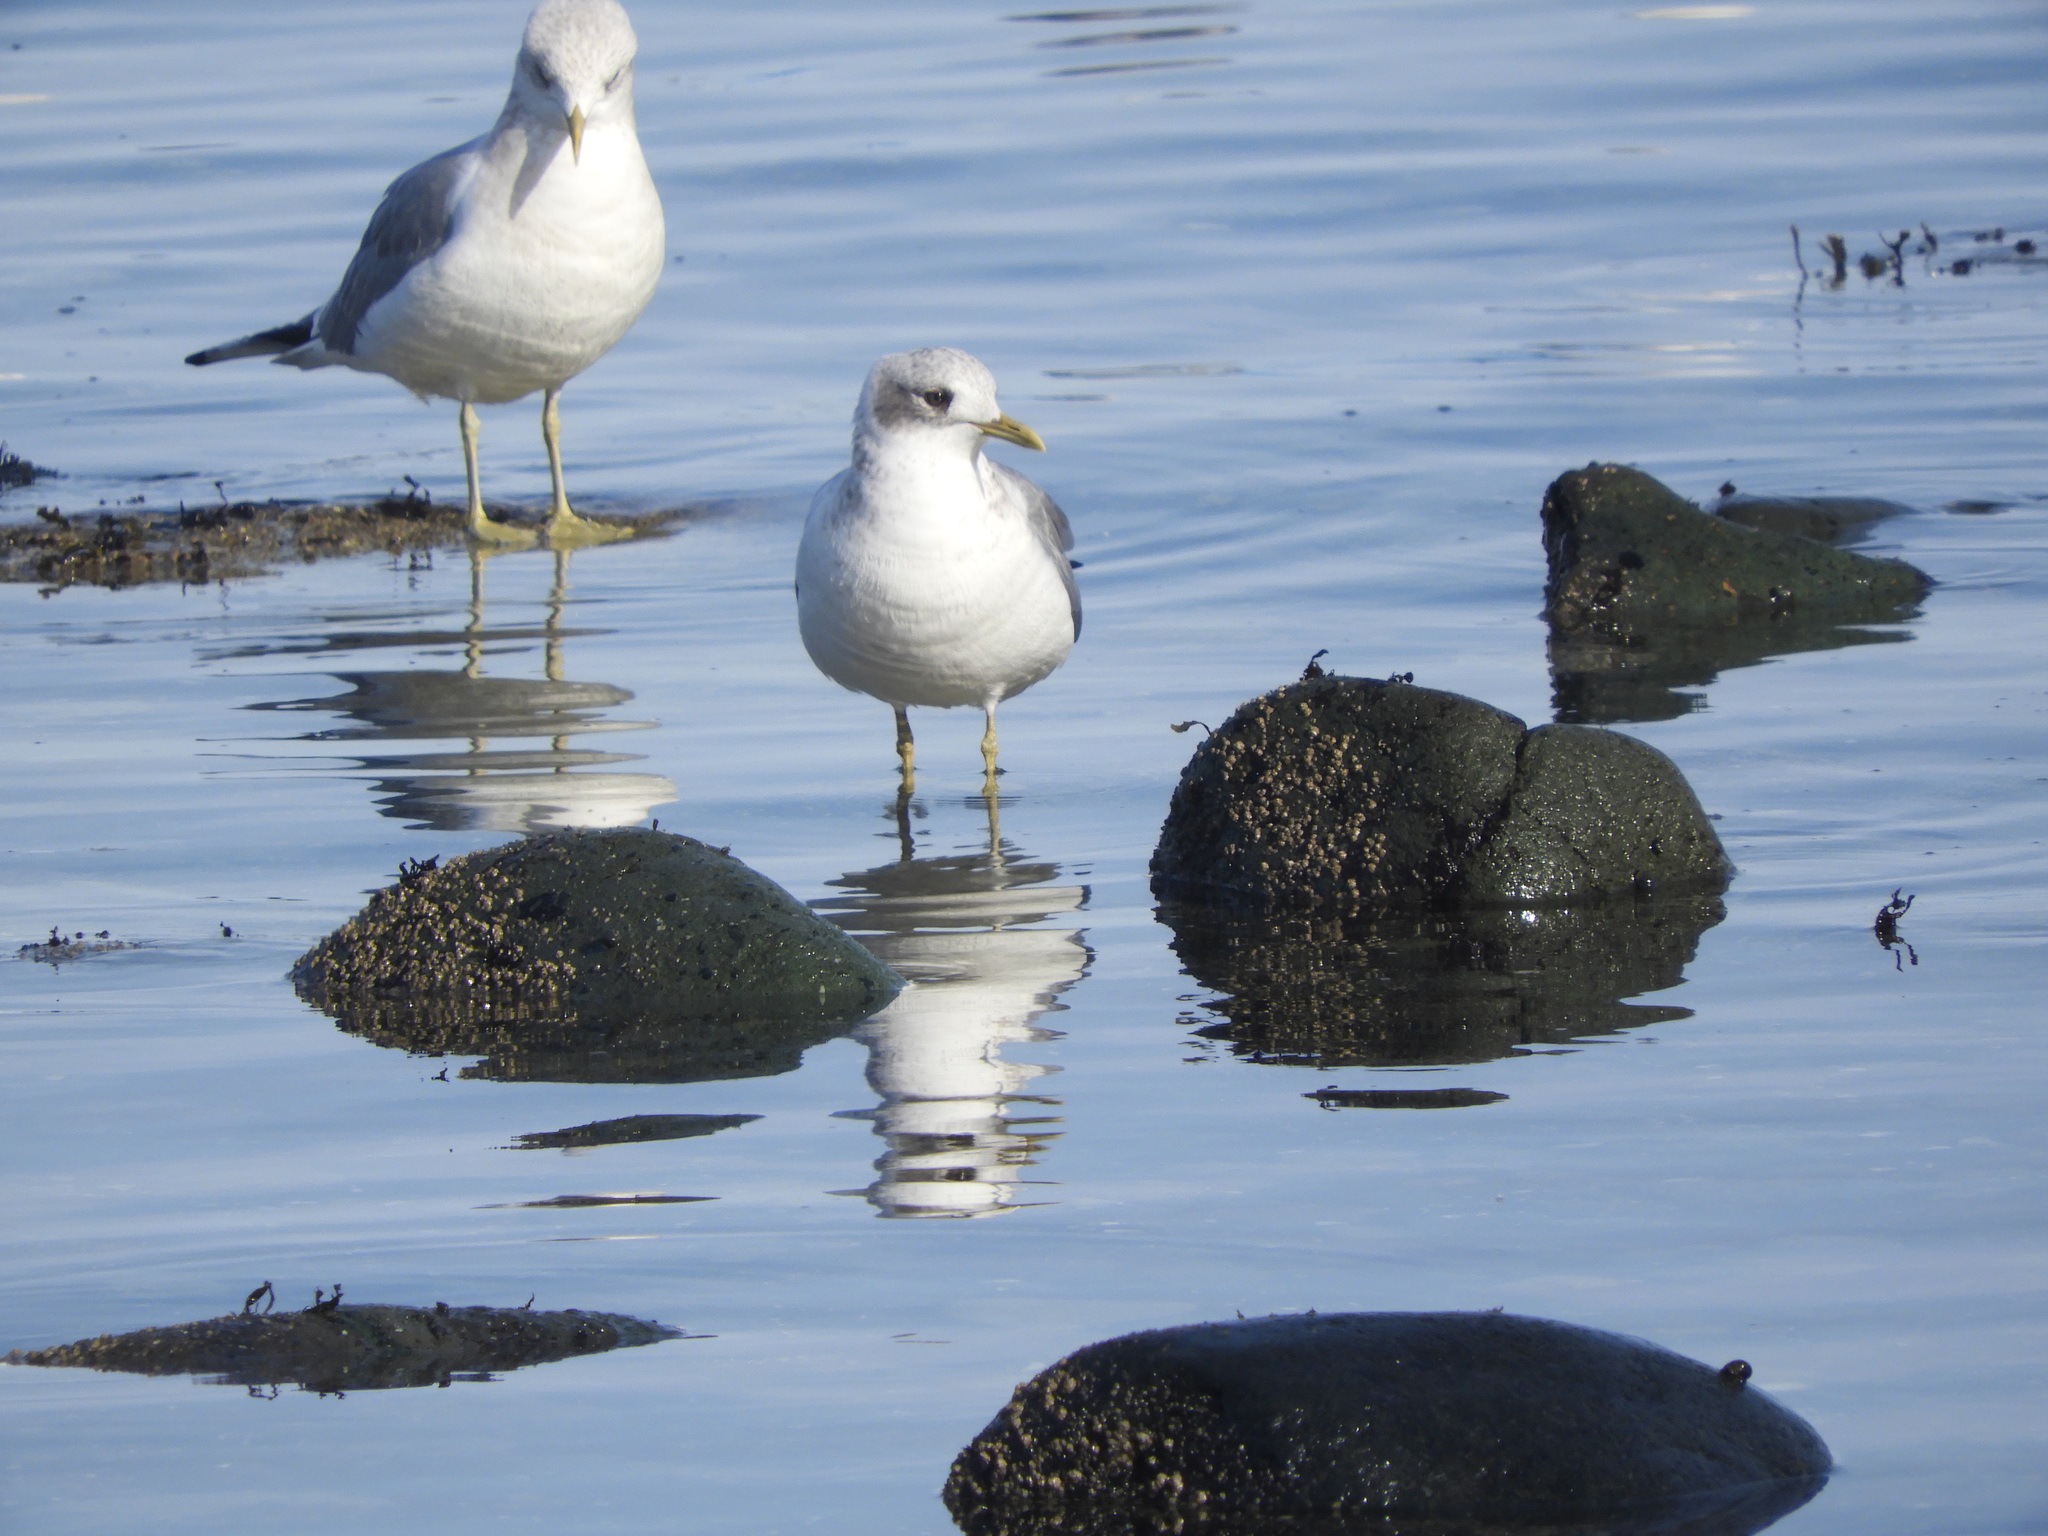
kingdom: Animalia
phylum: Chordata
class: Aves
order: Charadriiformes
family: Laridae
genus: Larus
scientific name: Larus brachyrhynchus
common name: Short-billed gull
